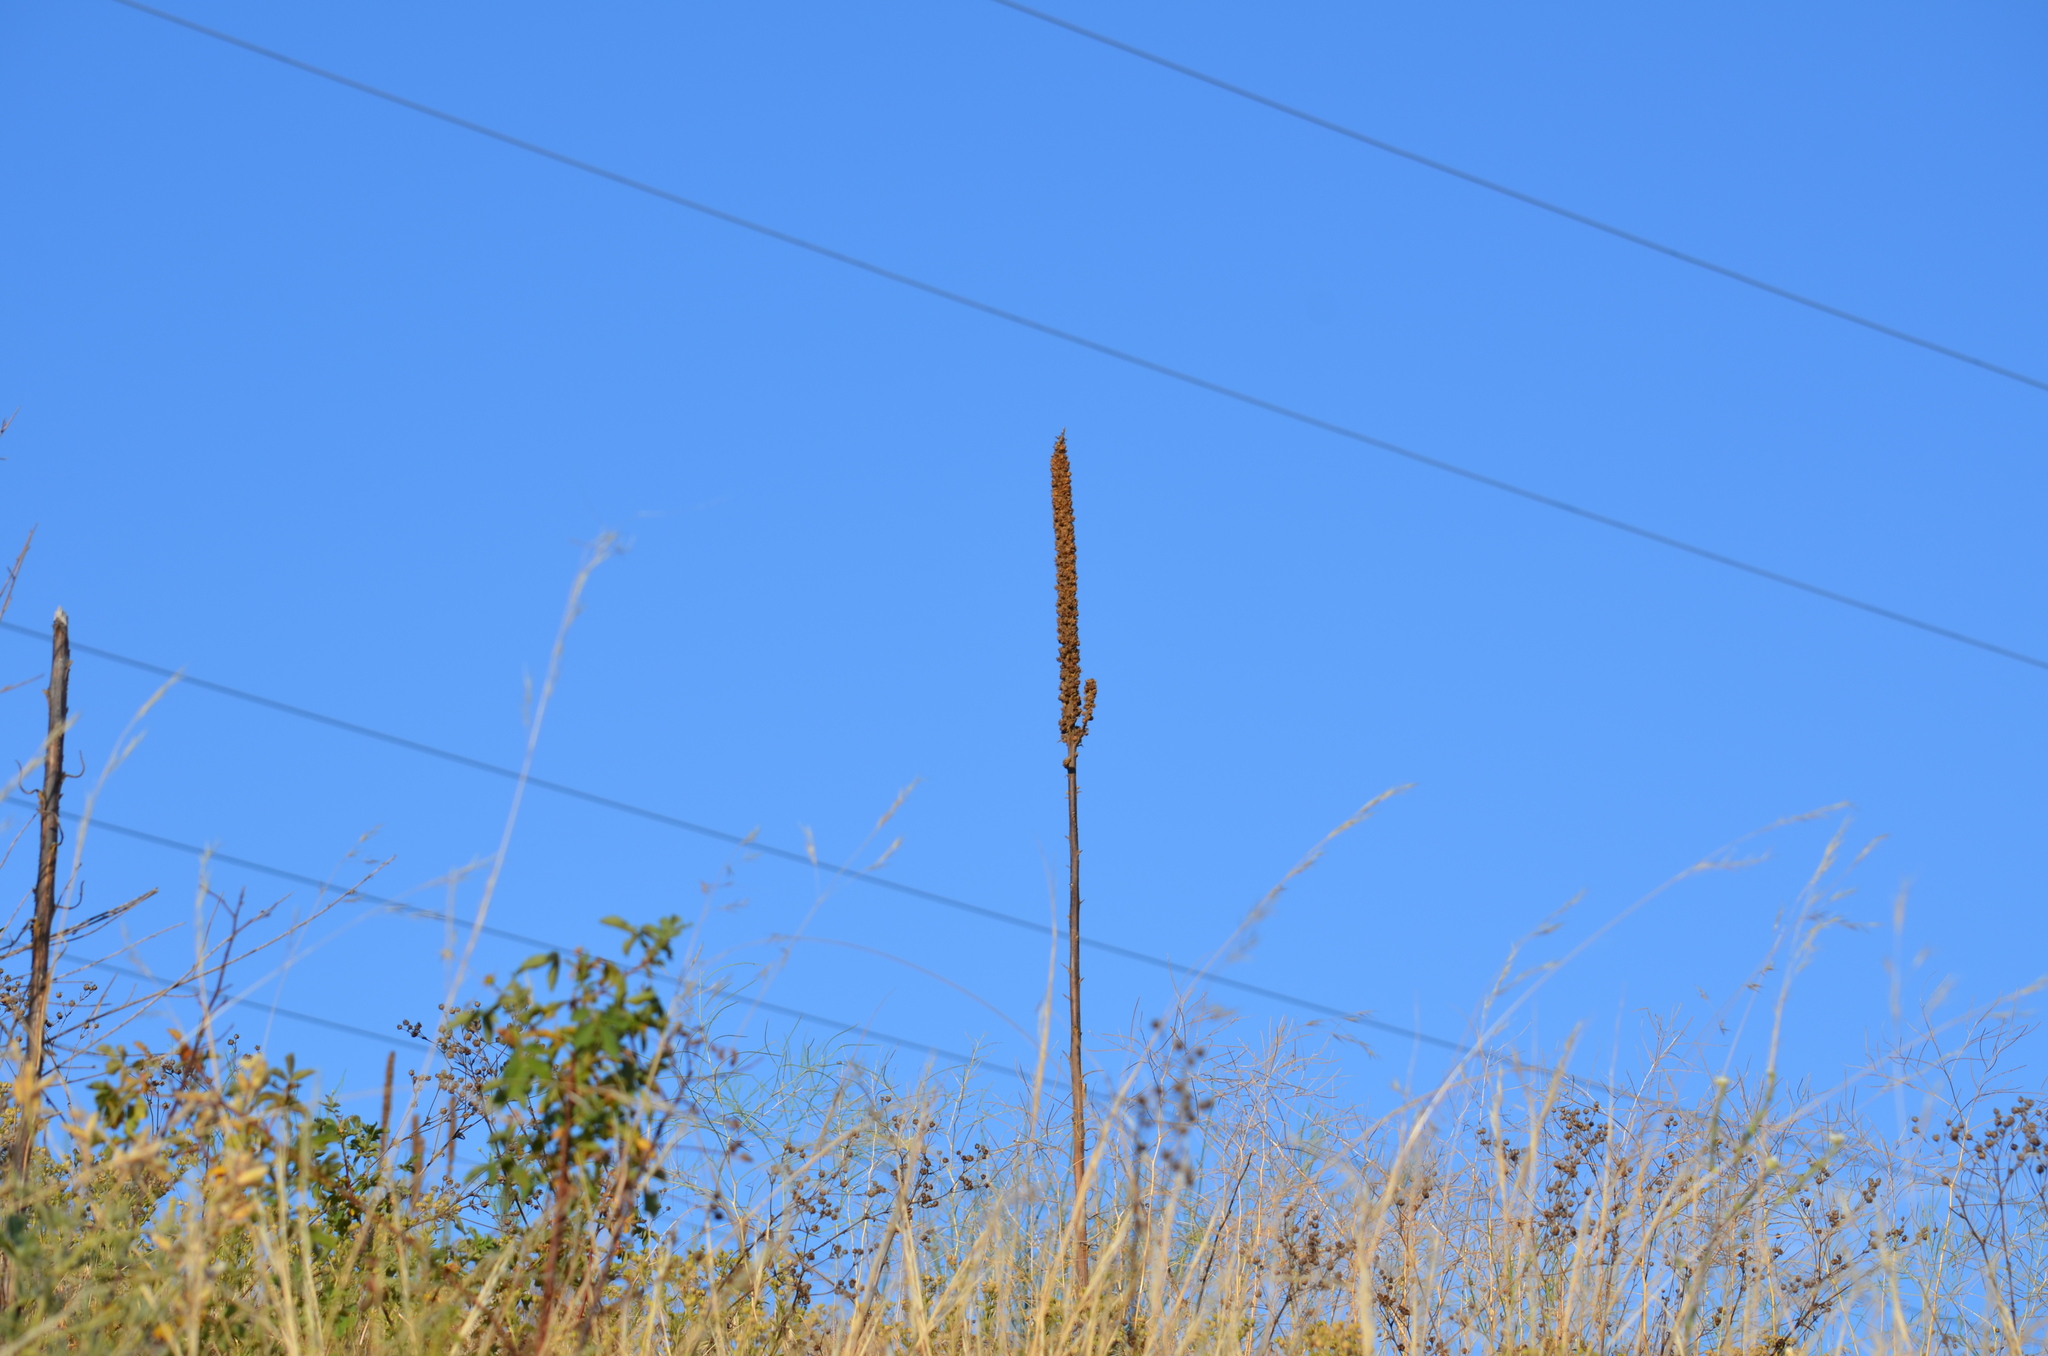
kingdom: Plantae
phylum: Tracheophyta
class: Magnoliopsida
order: Lamiales
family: Scrophulariaceae
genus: Verbascum
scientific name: Verbascum thapsus
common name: Common mullein
